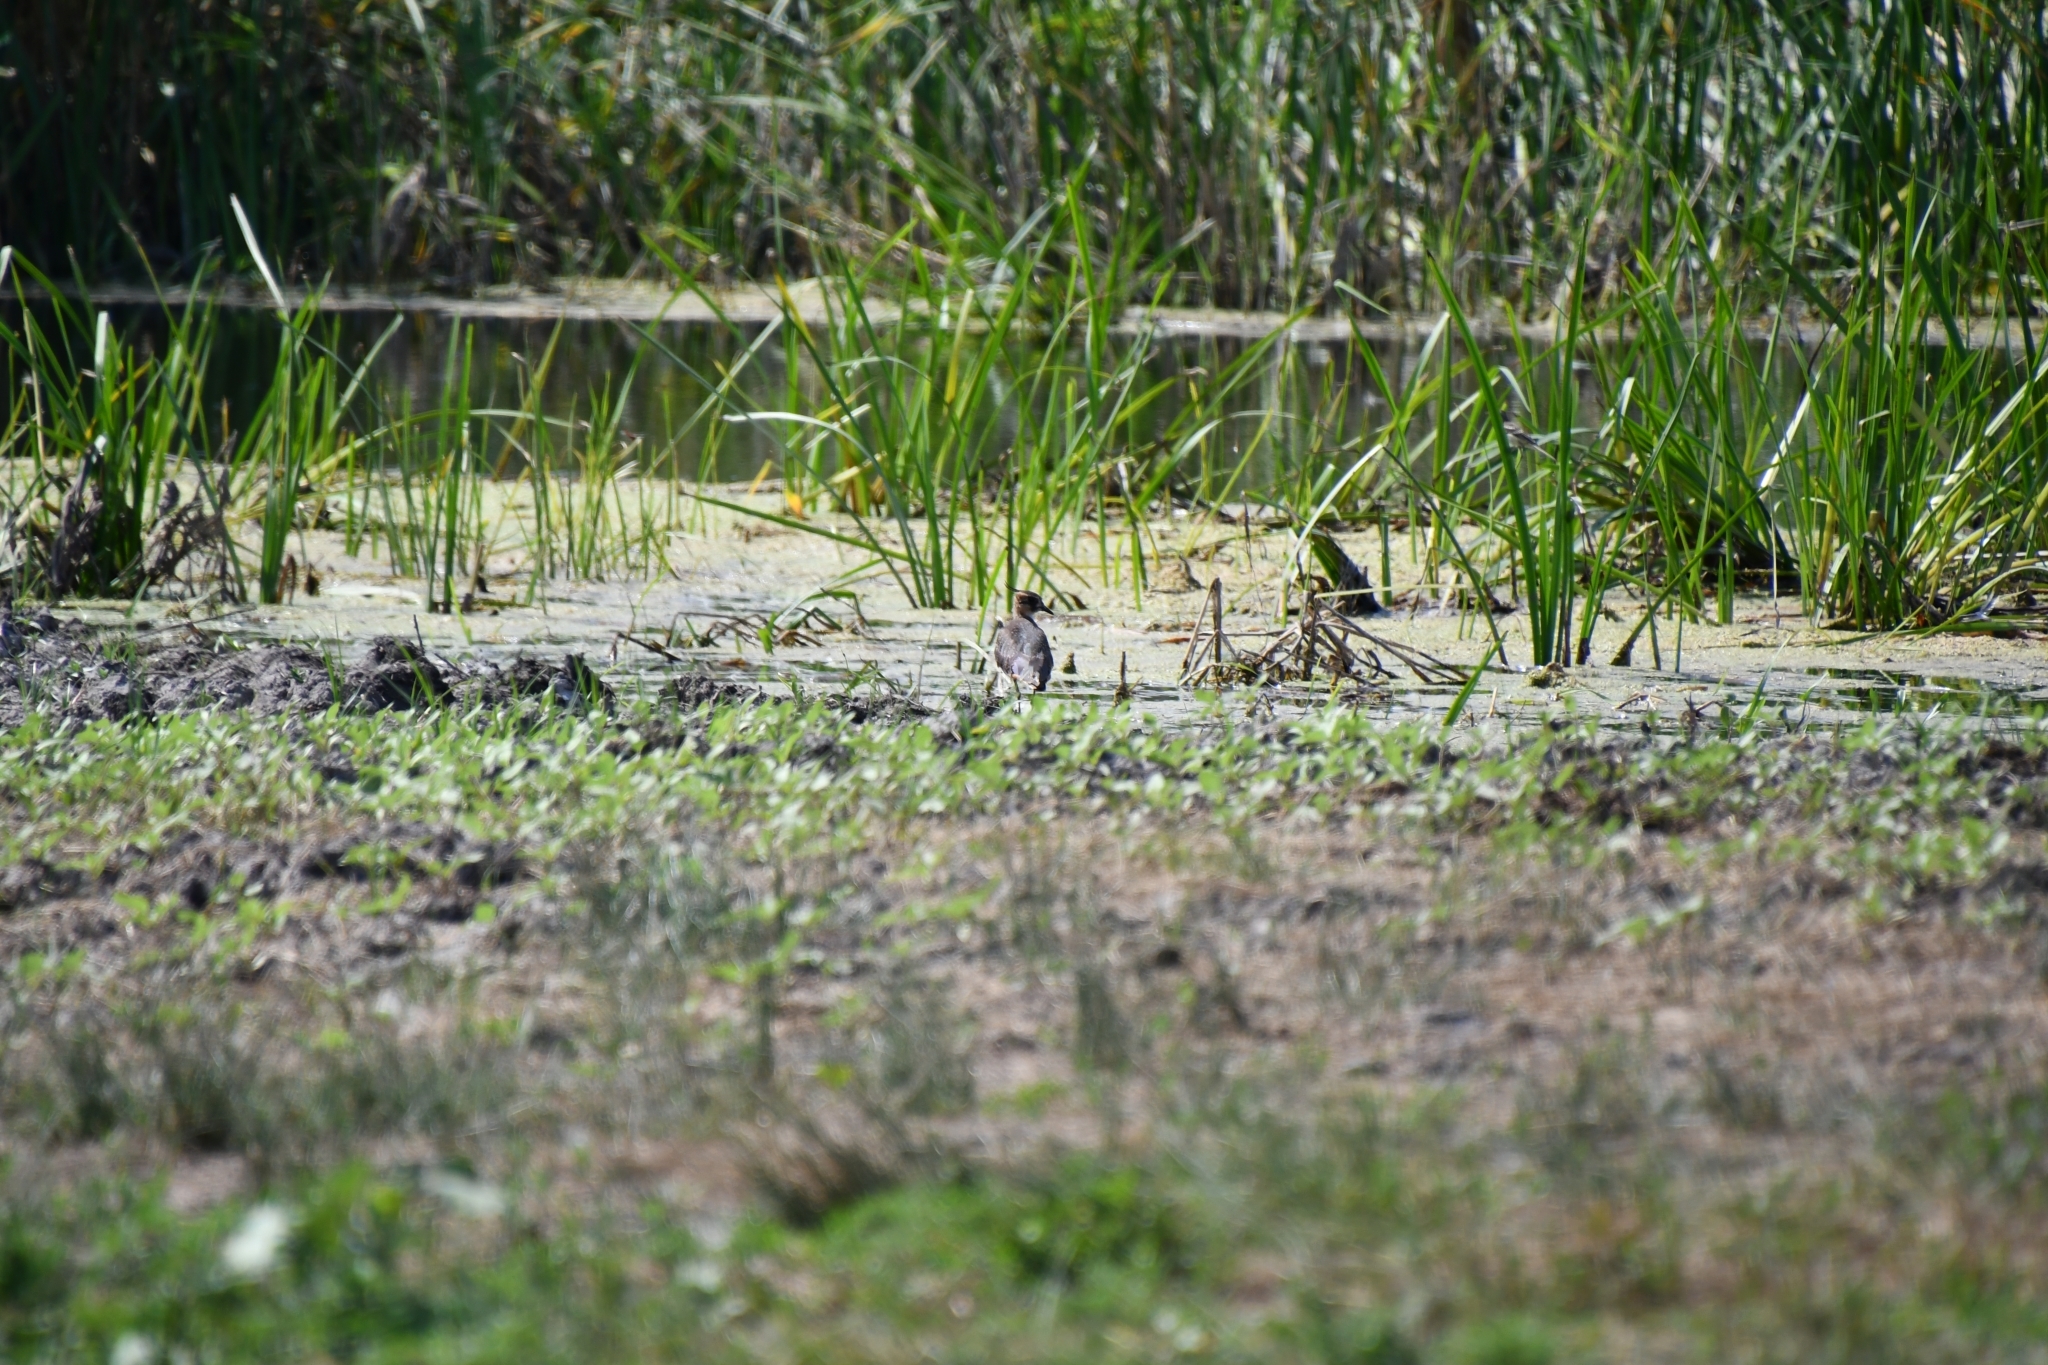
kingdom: Animalia
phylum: Chordata
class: Aves
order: Charadriiformes
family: Charadriidae
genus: Vanellus
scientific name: Vanellus vanellus
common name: Northern lapwing
